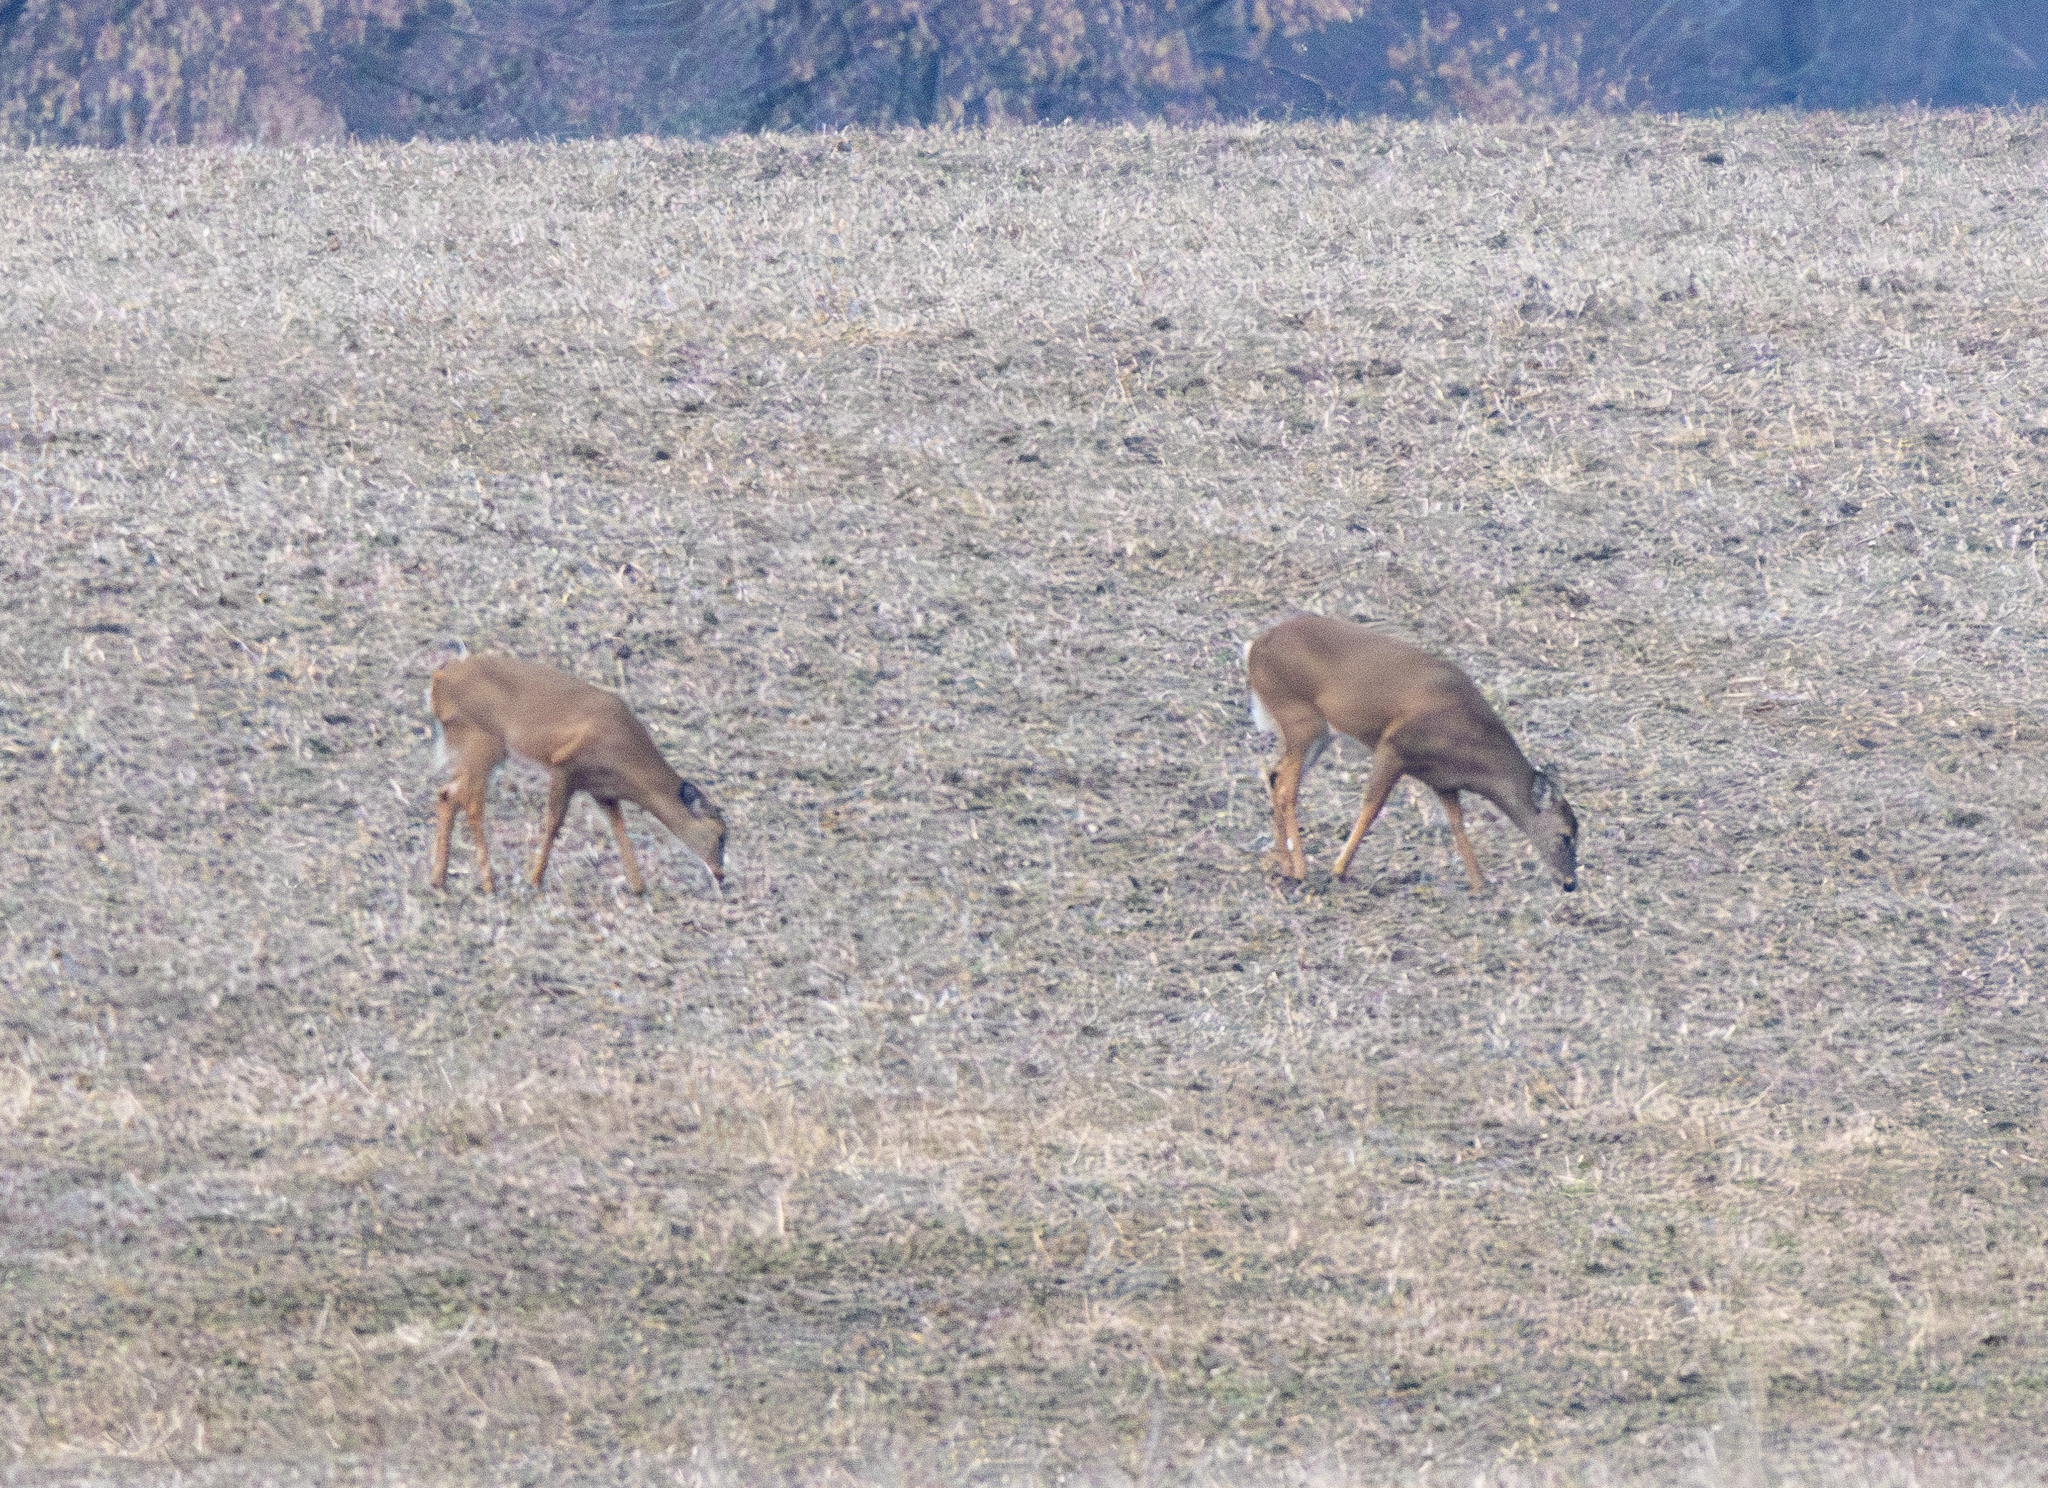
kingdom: Animalia
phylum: Chordata
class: Mammalia
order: Artiodactyla
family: Cervidae
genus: Odocoileus
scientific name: Odocoileus virginianus
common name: White-tailed deer
